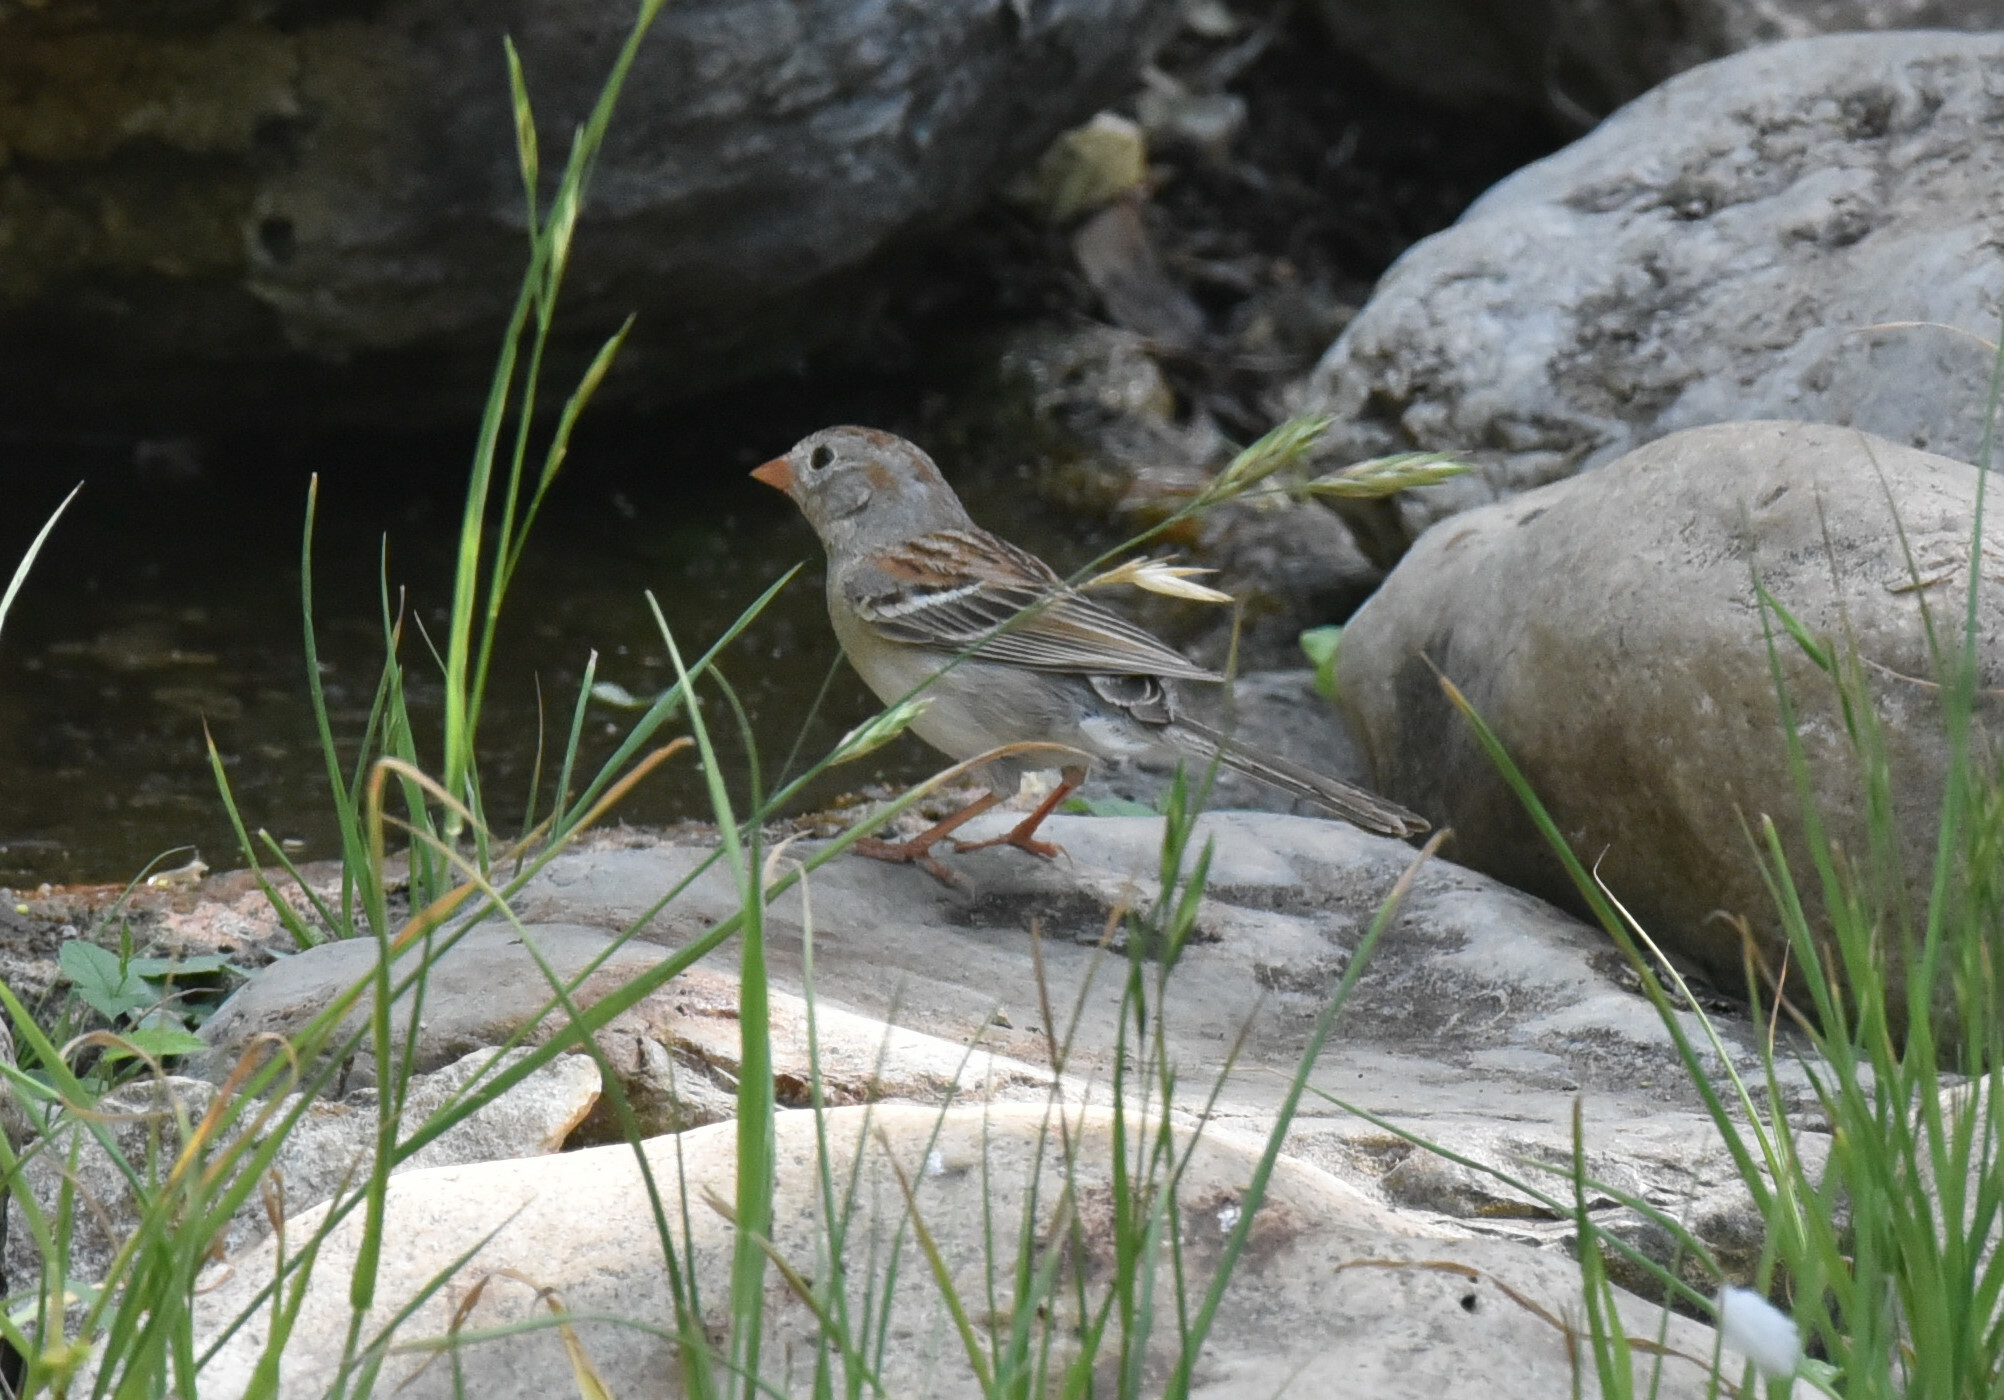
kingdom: Animalia
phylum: Chordata
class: Aves
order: Passeriformes
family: Passerellidae
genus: Spizella
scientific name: Spizella pusilla
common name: Field sparrow
